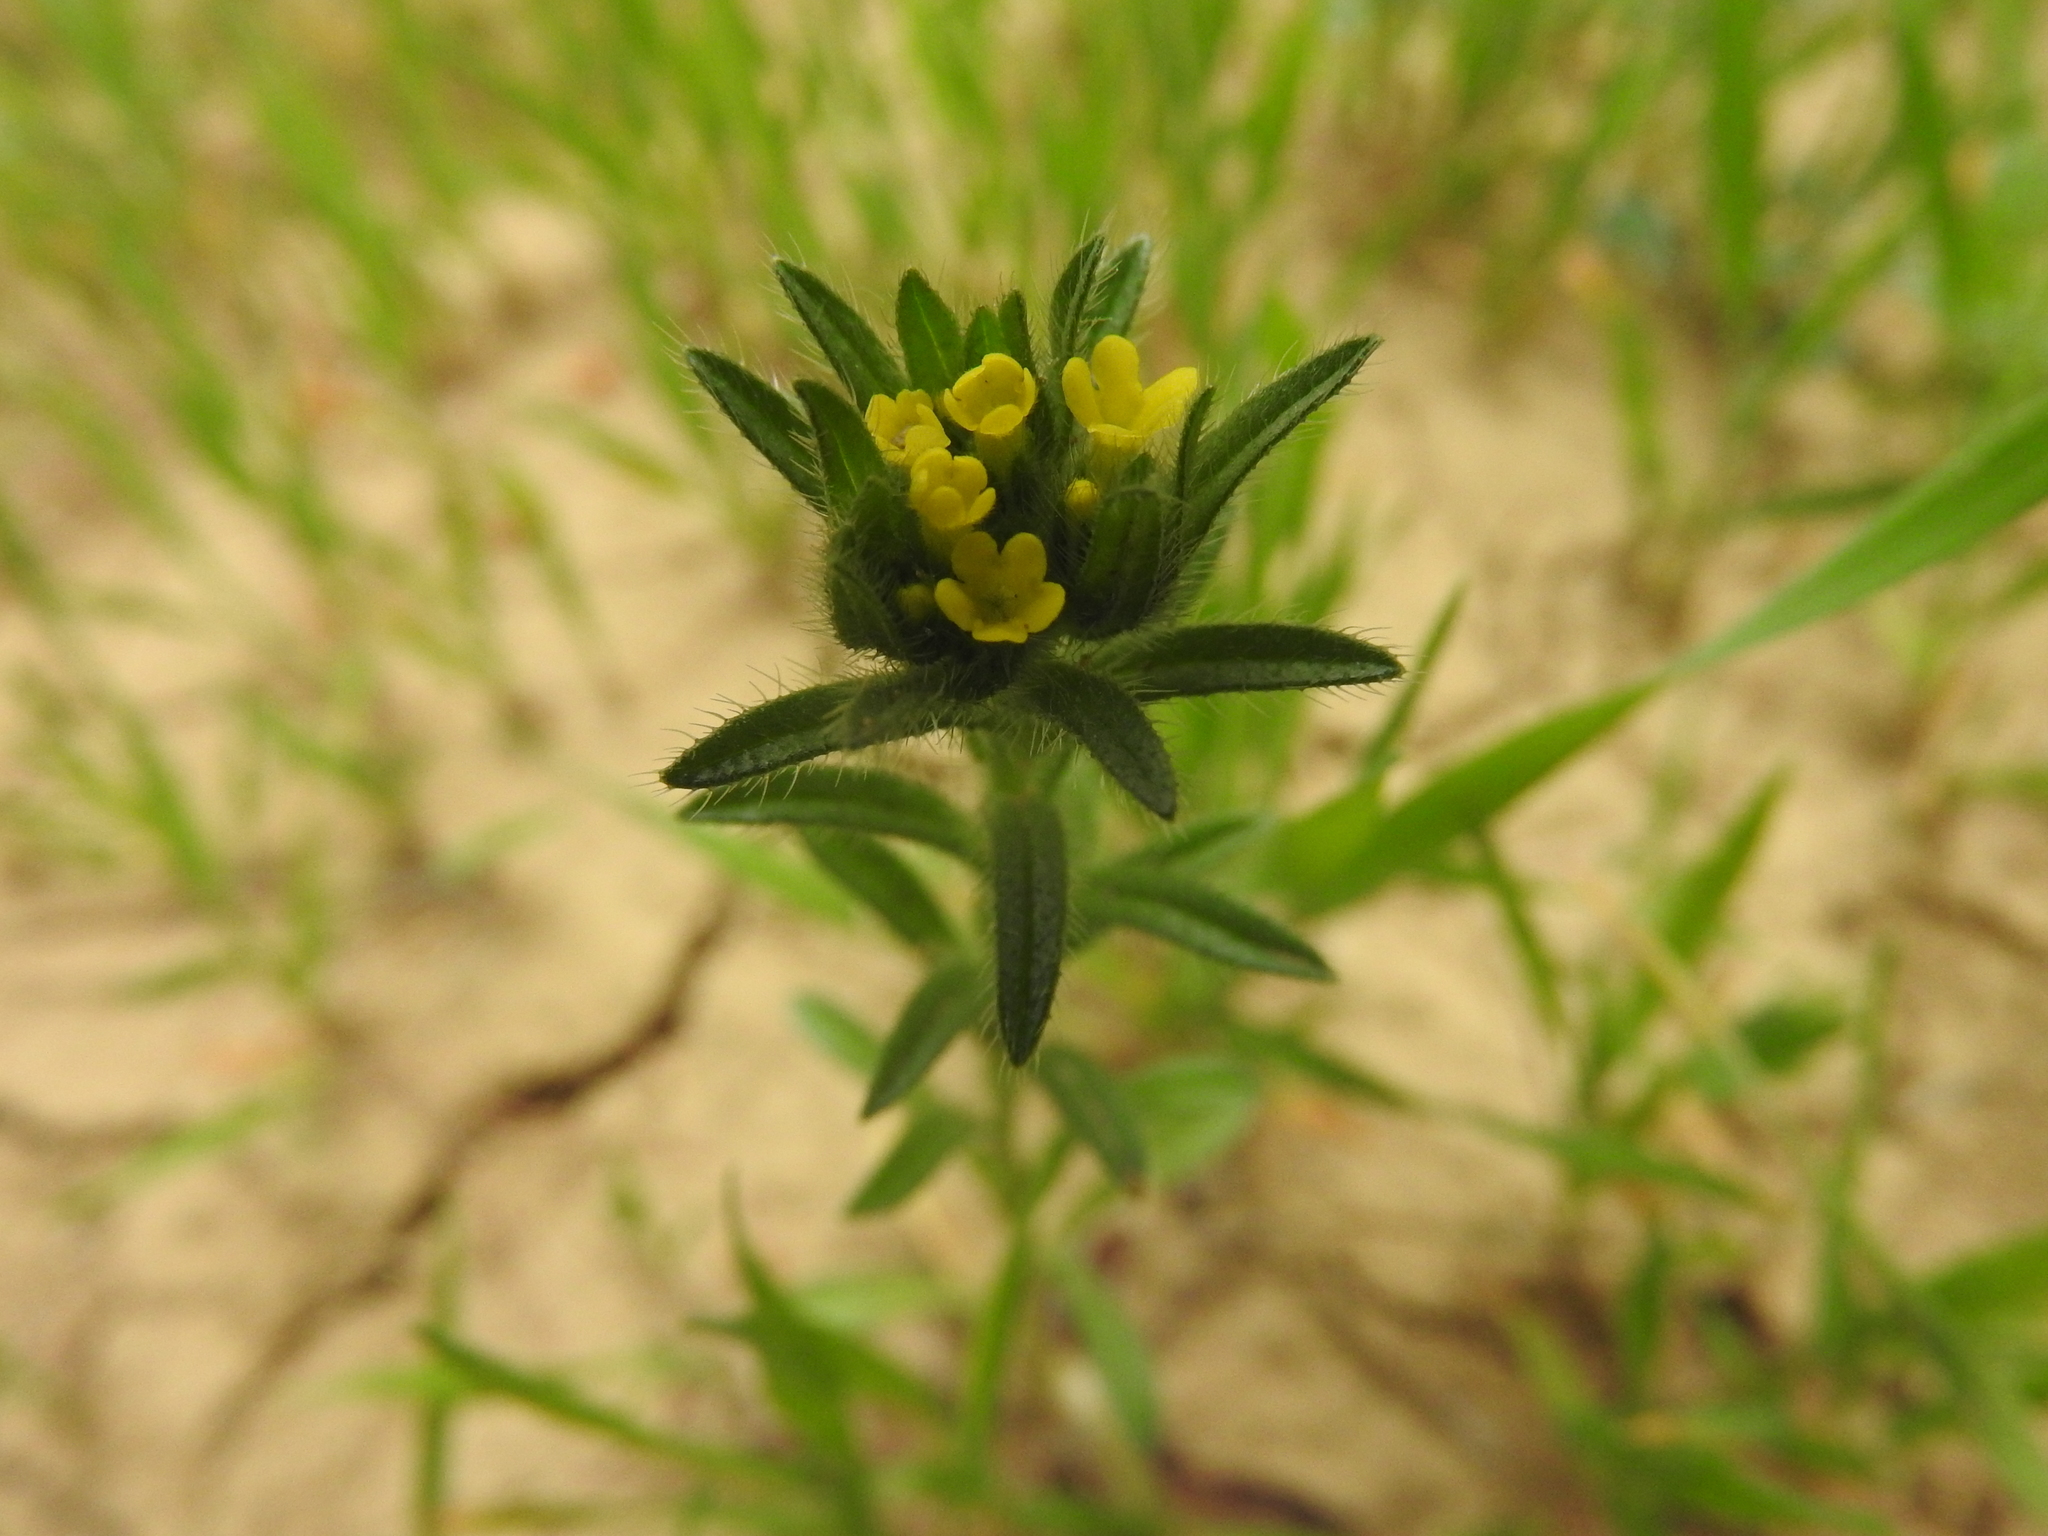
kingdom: Plantae
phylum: Tracheophyta
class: Magnoliopsida
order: Boraginales
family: Boraginaceae
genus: Neatostema
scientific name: Neatostema apulum
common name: Hairy sheepweed
